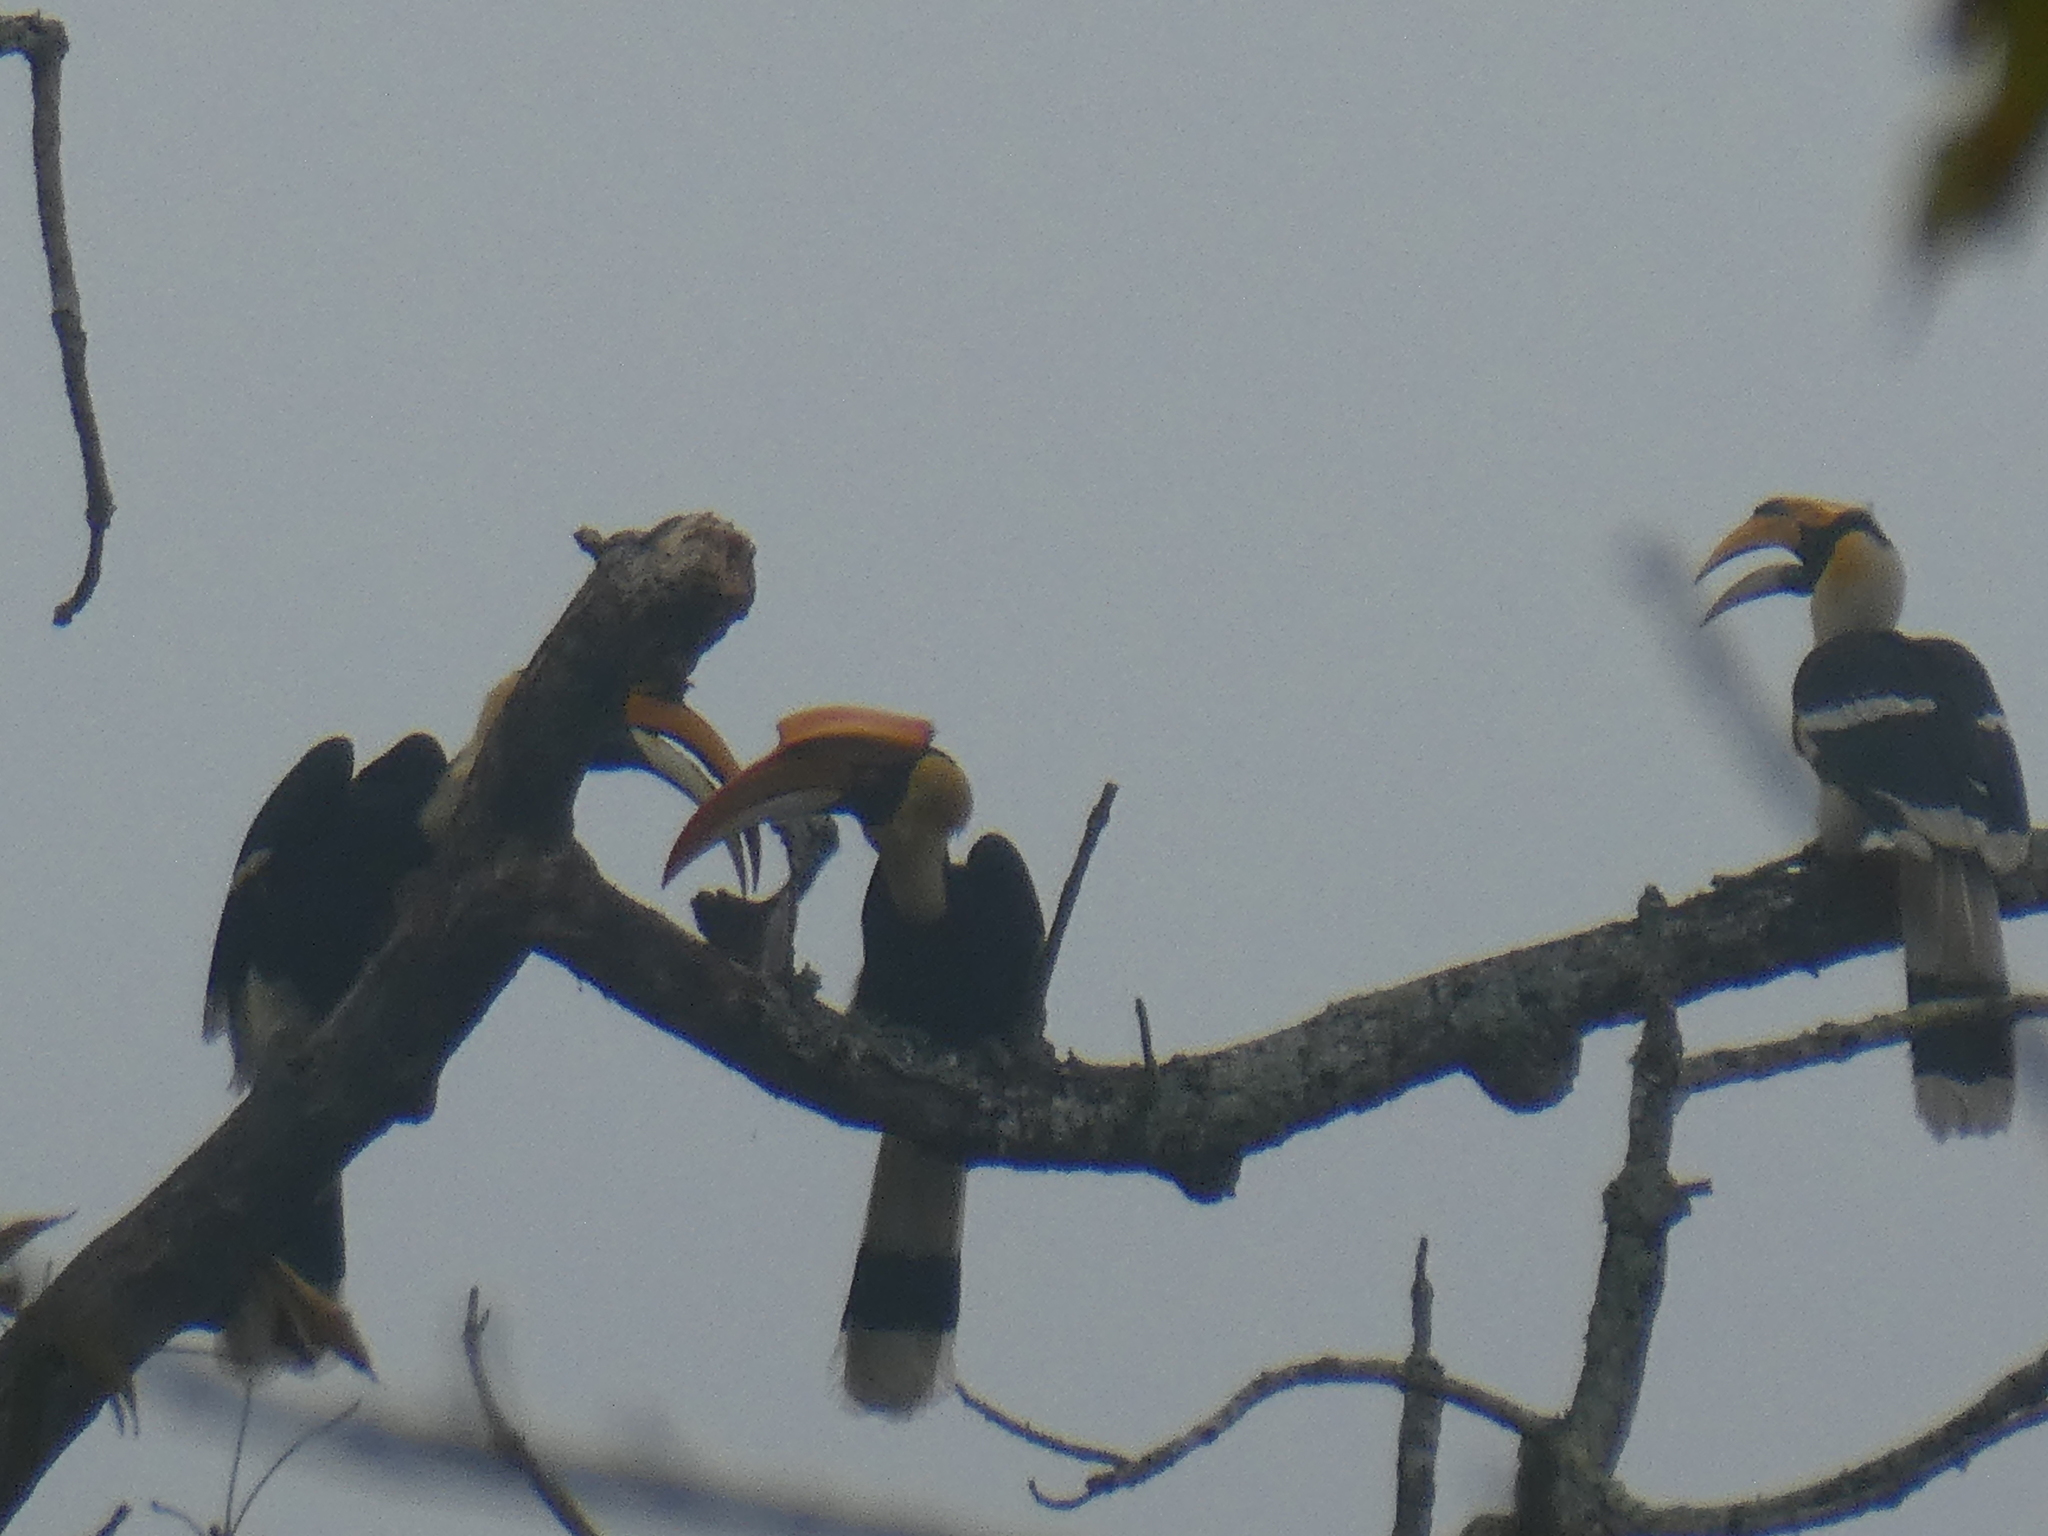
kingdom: Animalia
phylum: Chordata
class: Aves
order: Bucerotiformes
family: Bucerotidae
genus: Buceros
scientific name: Buceros bicornis
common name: Great hornbill
